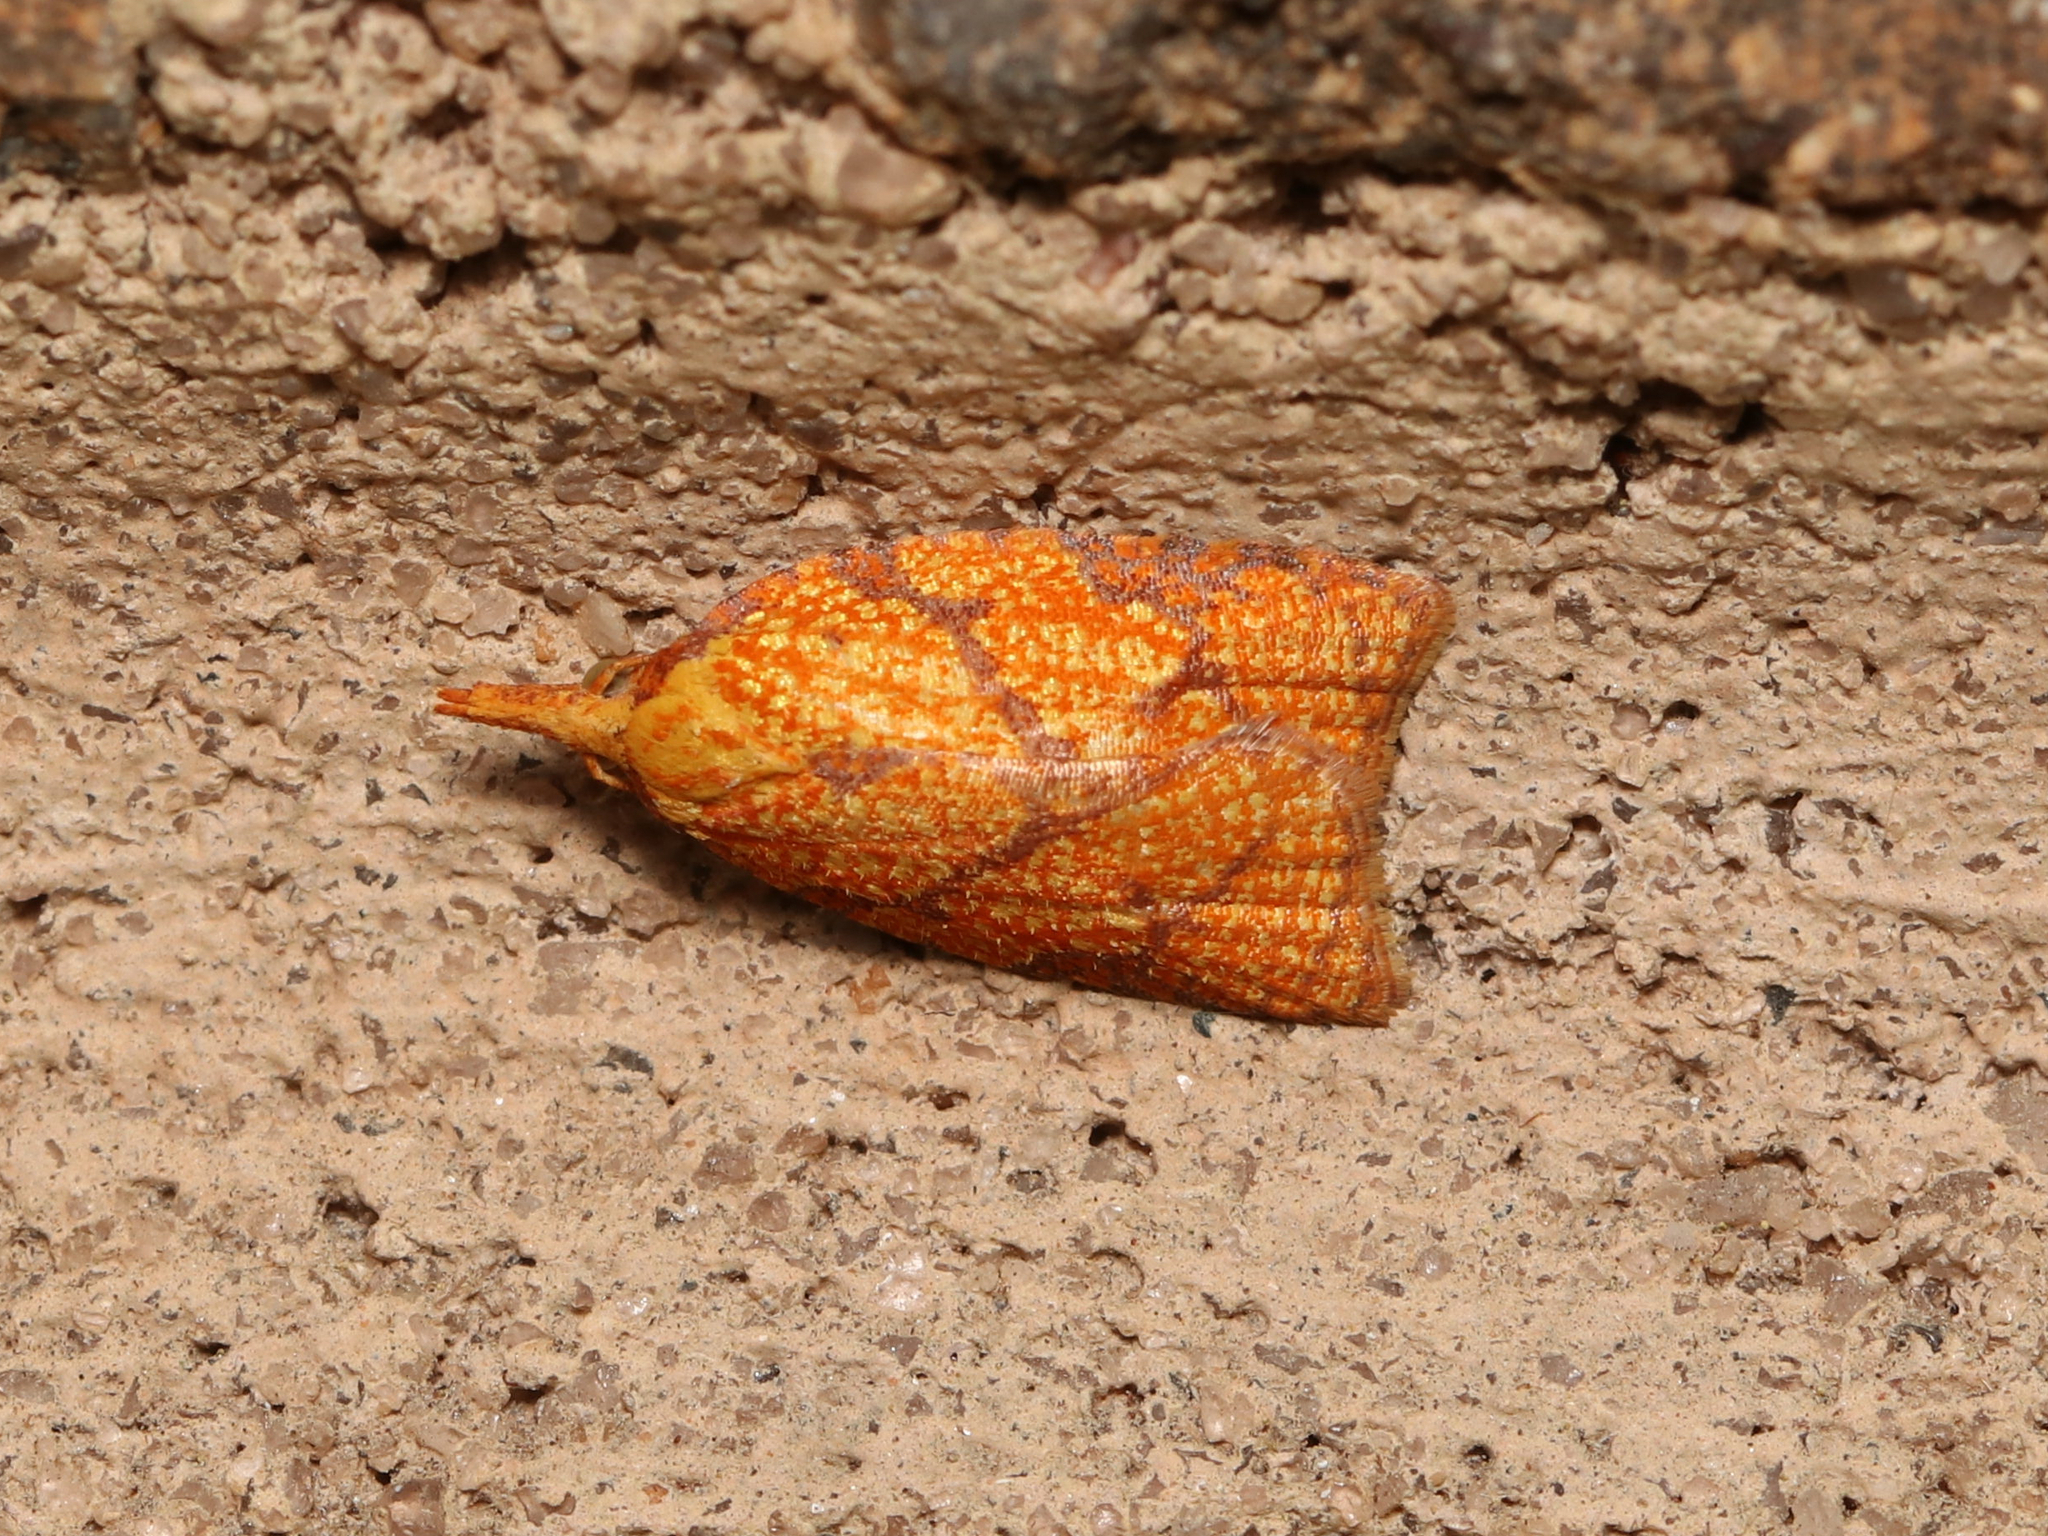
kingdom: Animalia
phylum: Arthropoda
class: Insecta
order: Lepidoptera
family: Tortricidae
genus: Cenopis
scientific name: Cenopis reticulatana
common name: Reticulated fruitworm moth
